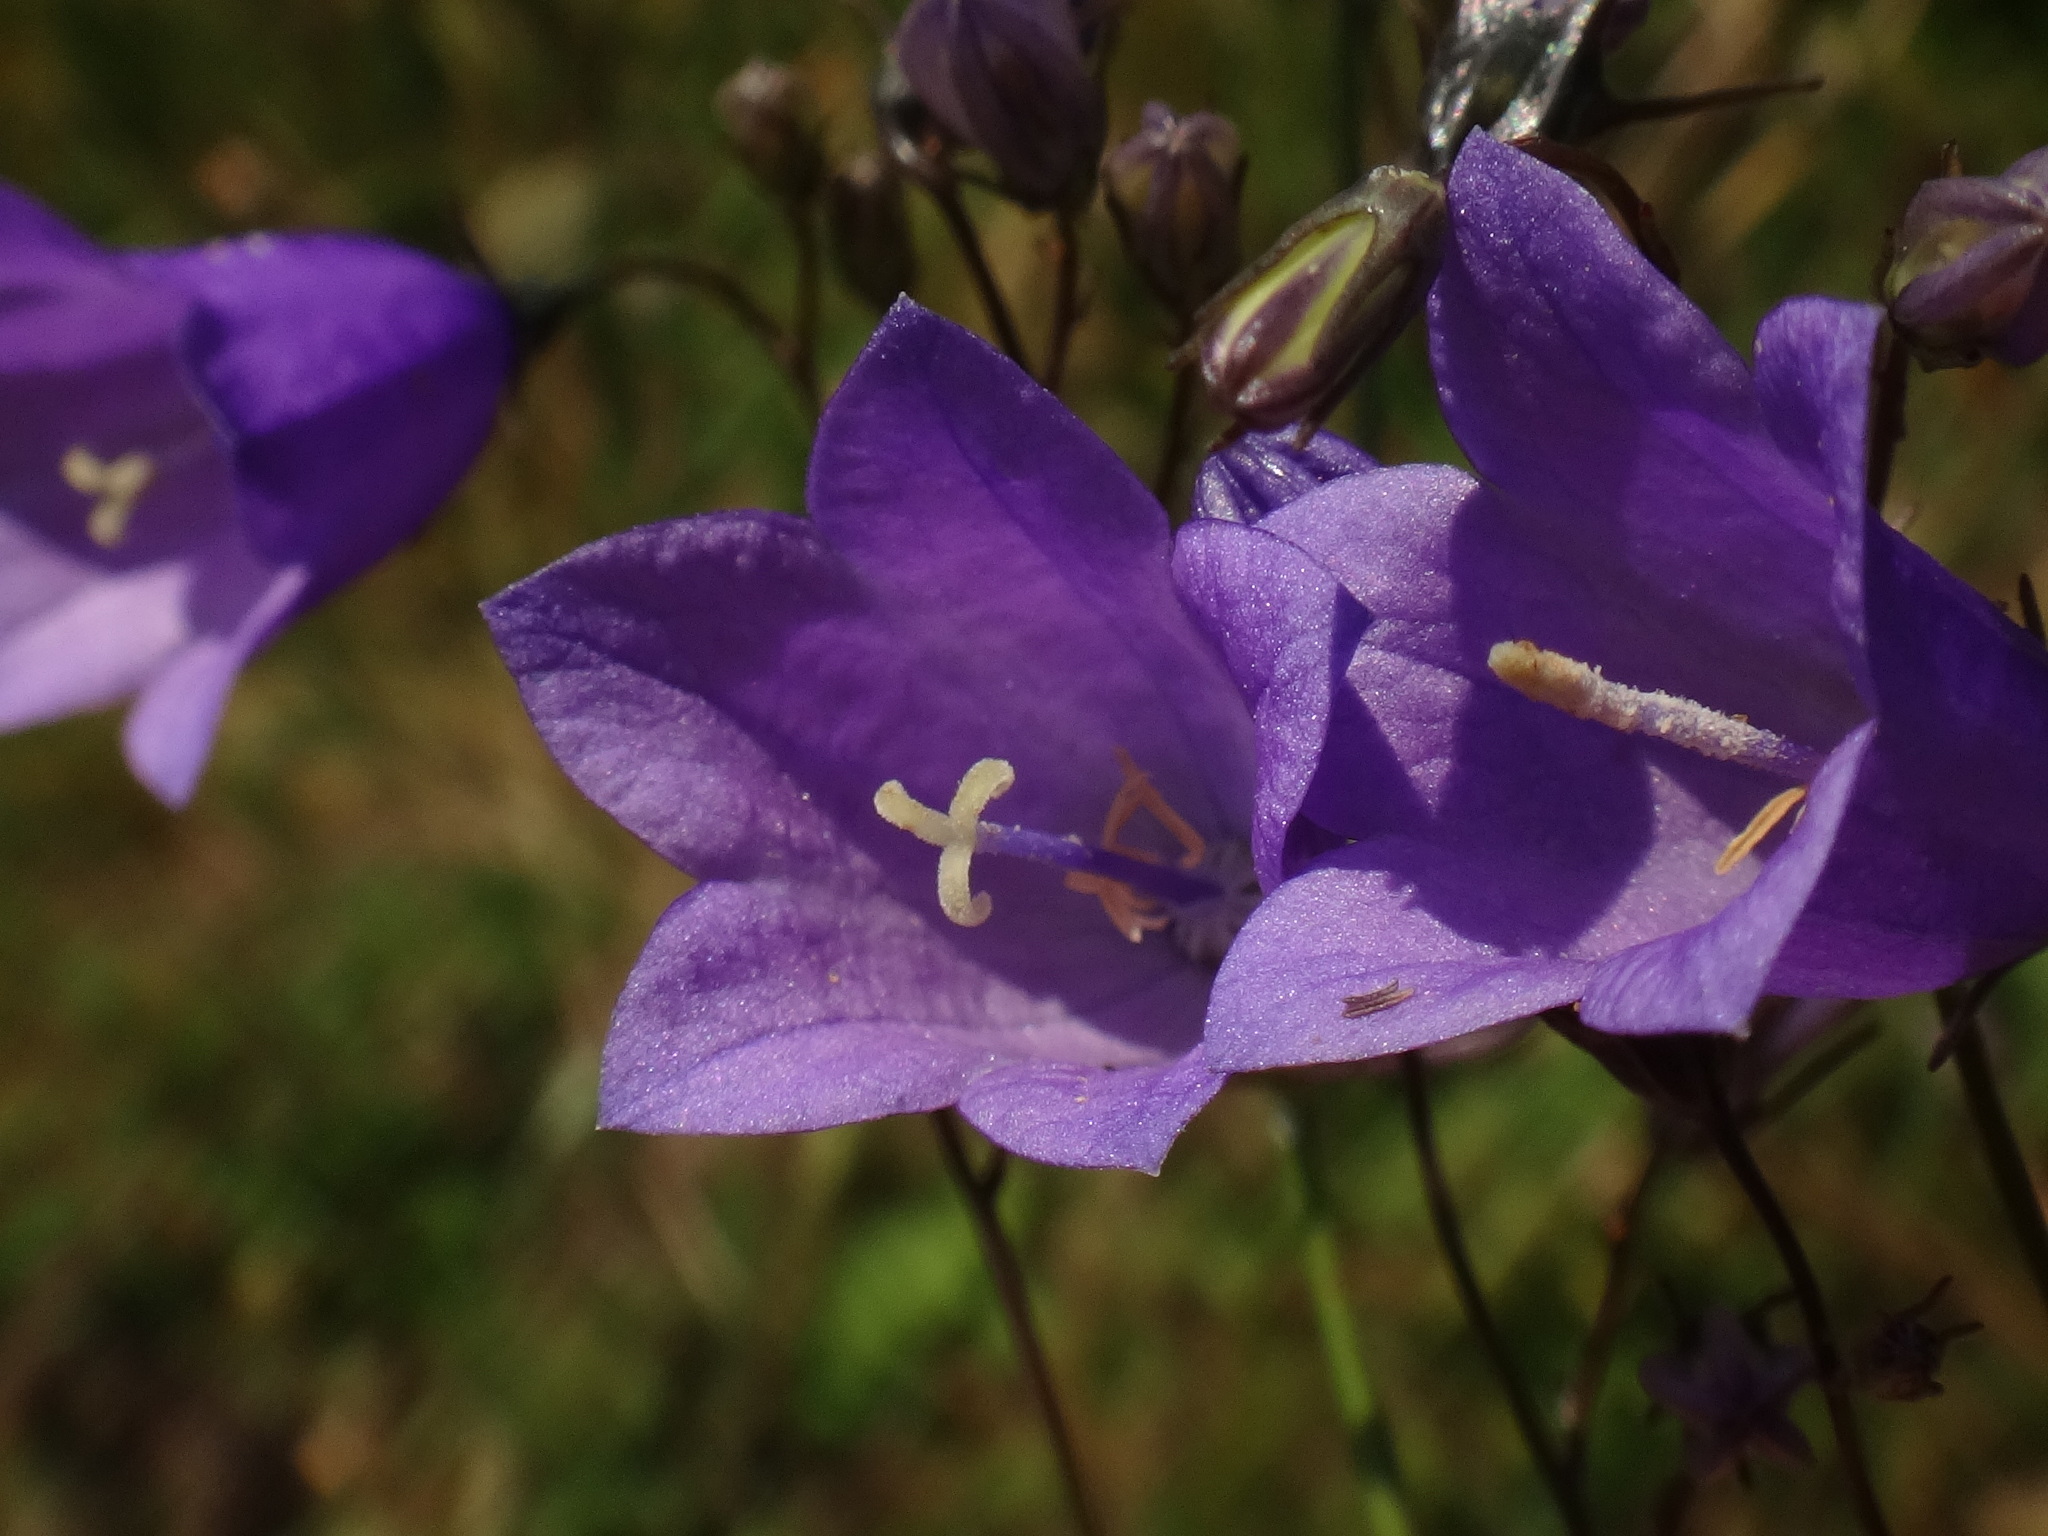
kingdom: Plantae
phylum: Tracheophyta
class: Magnoliopsida
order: Asterales
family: Campanulaceae
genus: Campanula
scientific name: Campanula rotundifolia
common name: Harebell
